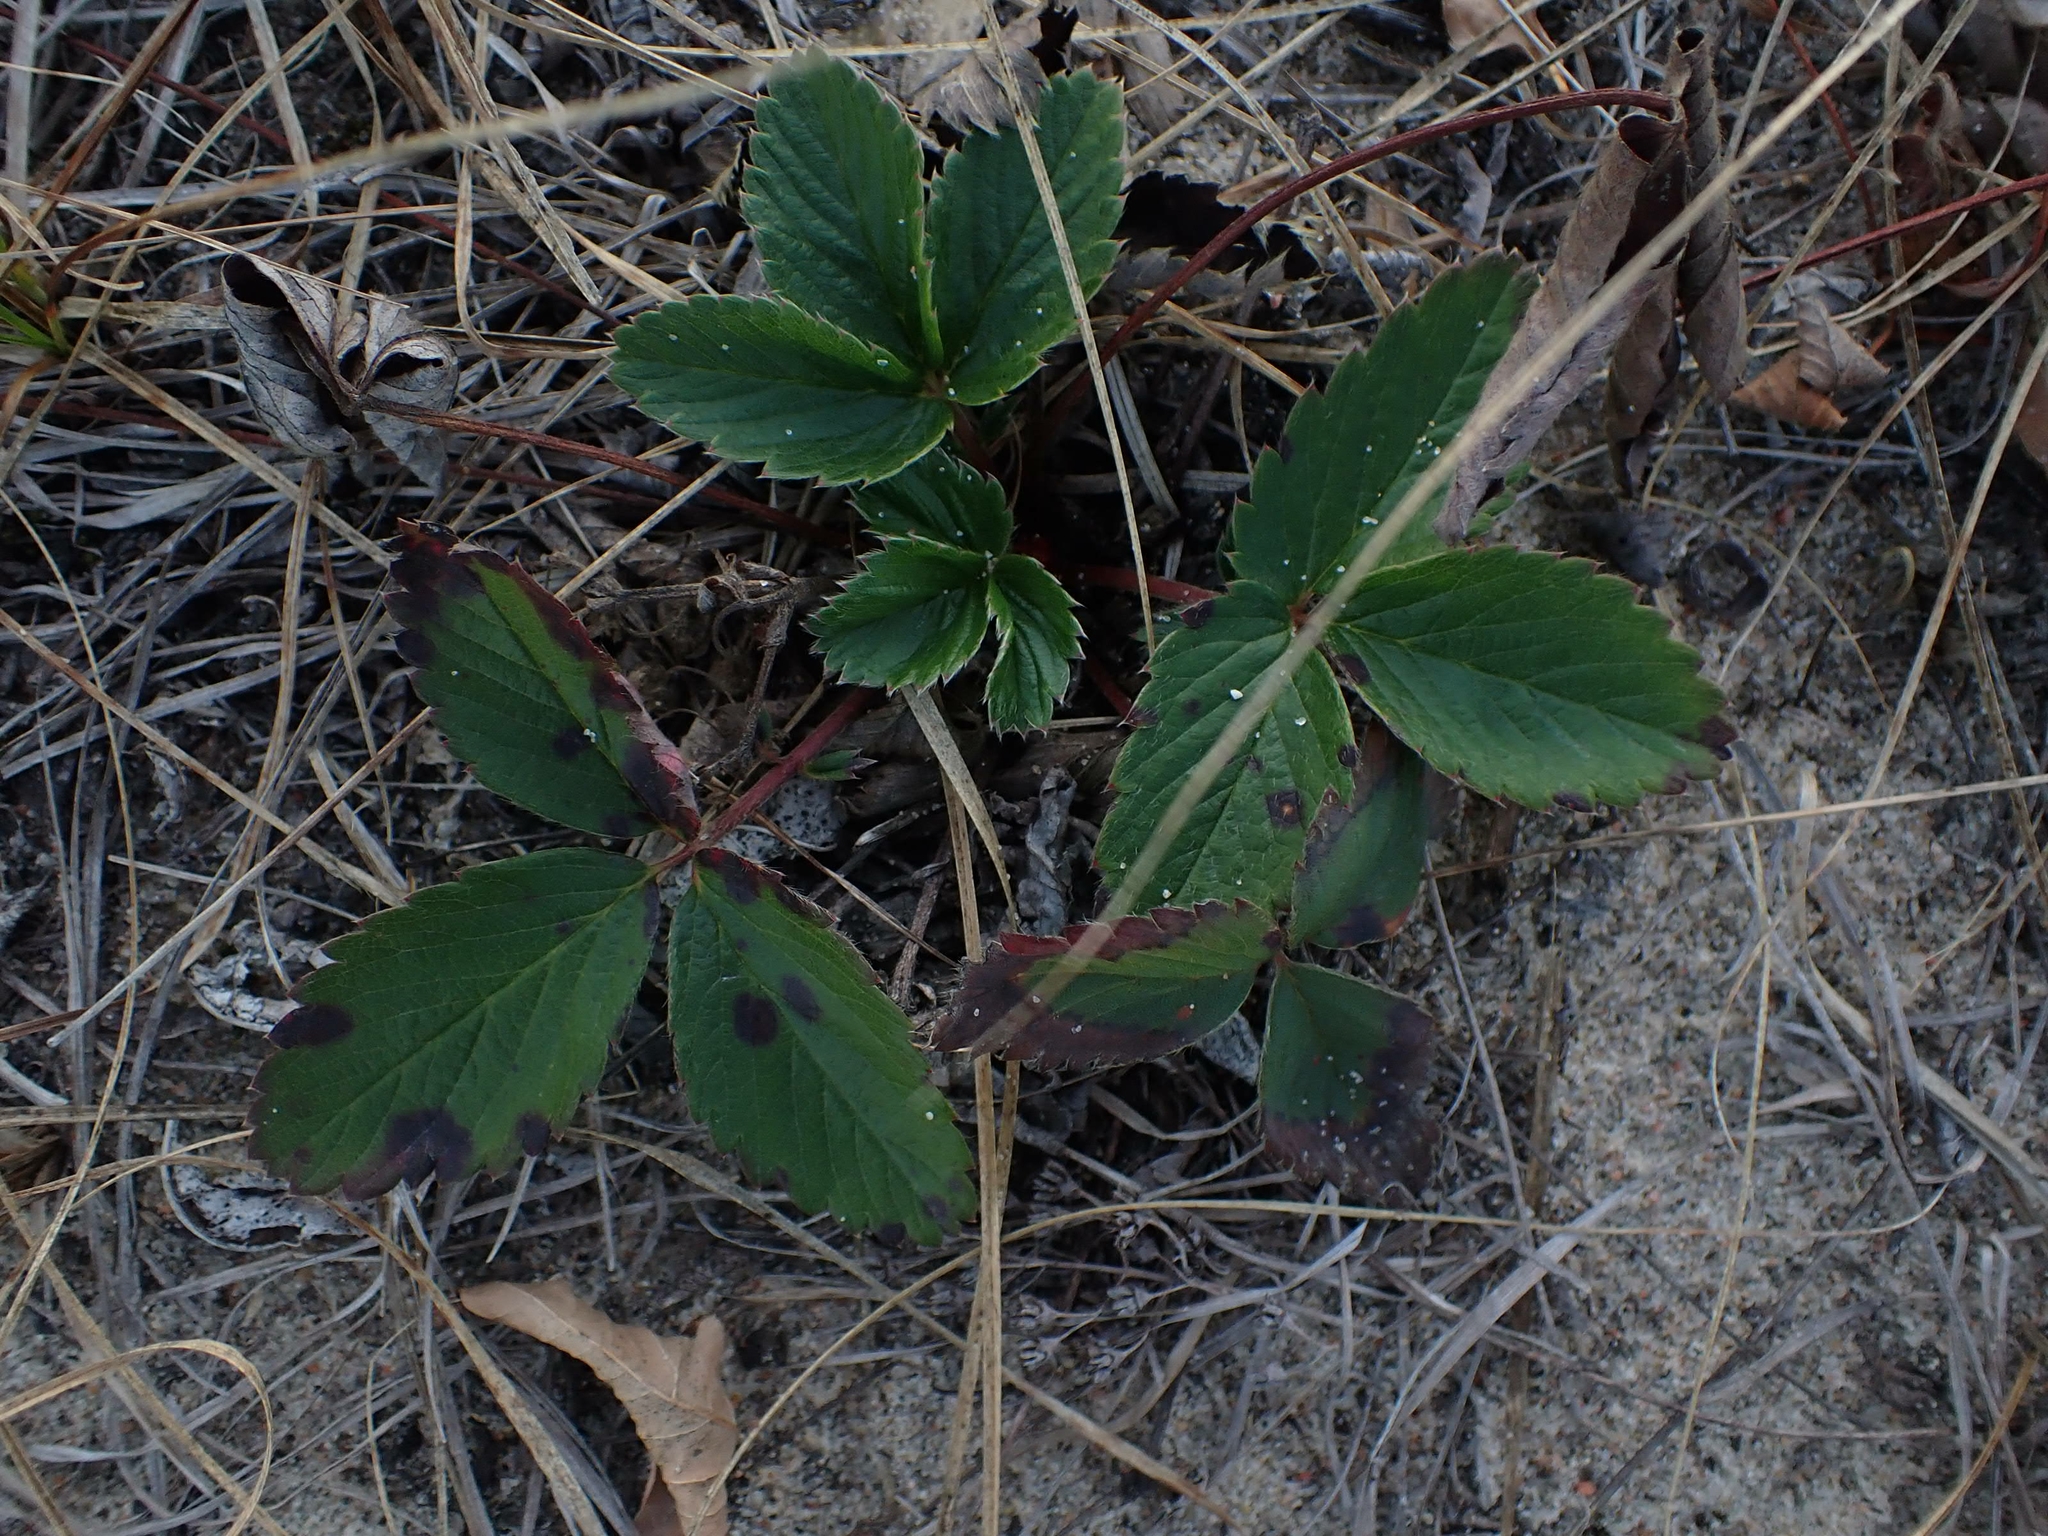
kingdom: Plantae
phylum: Tracheophyta
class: Magnoliopsida
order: Rosales
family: Rosaceae
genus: Fragaria
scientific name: Fragaria virginiana
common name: Thickleaved wild strawberry
